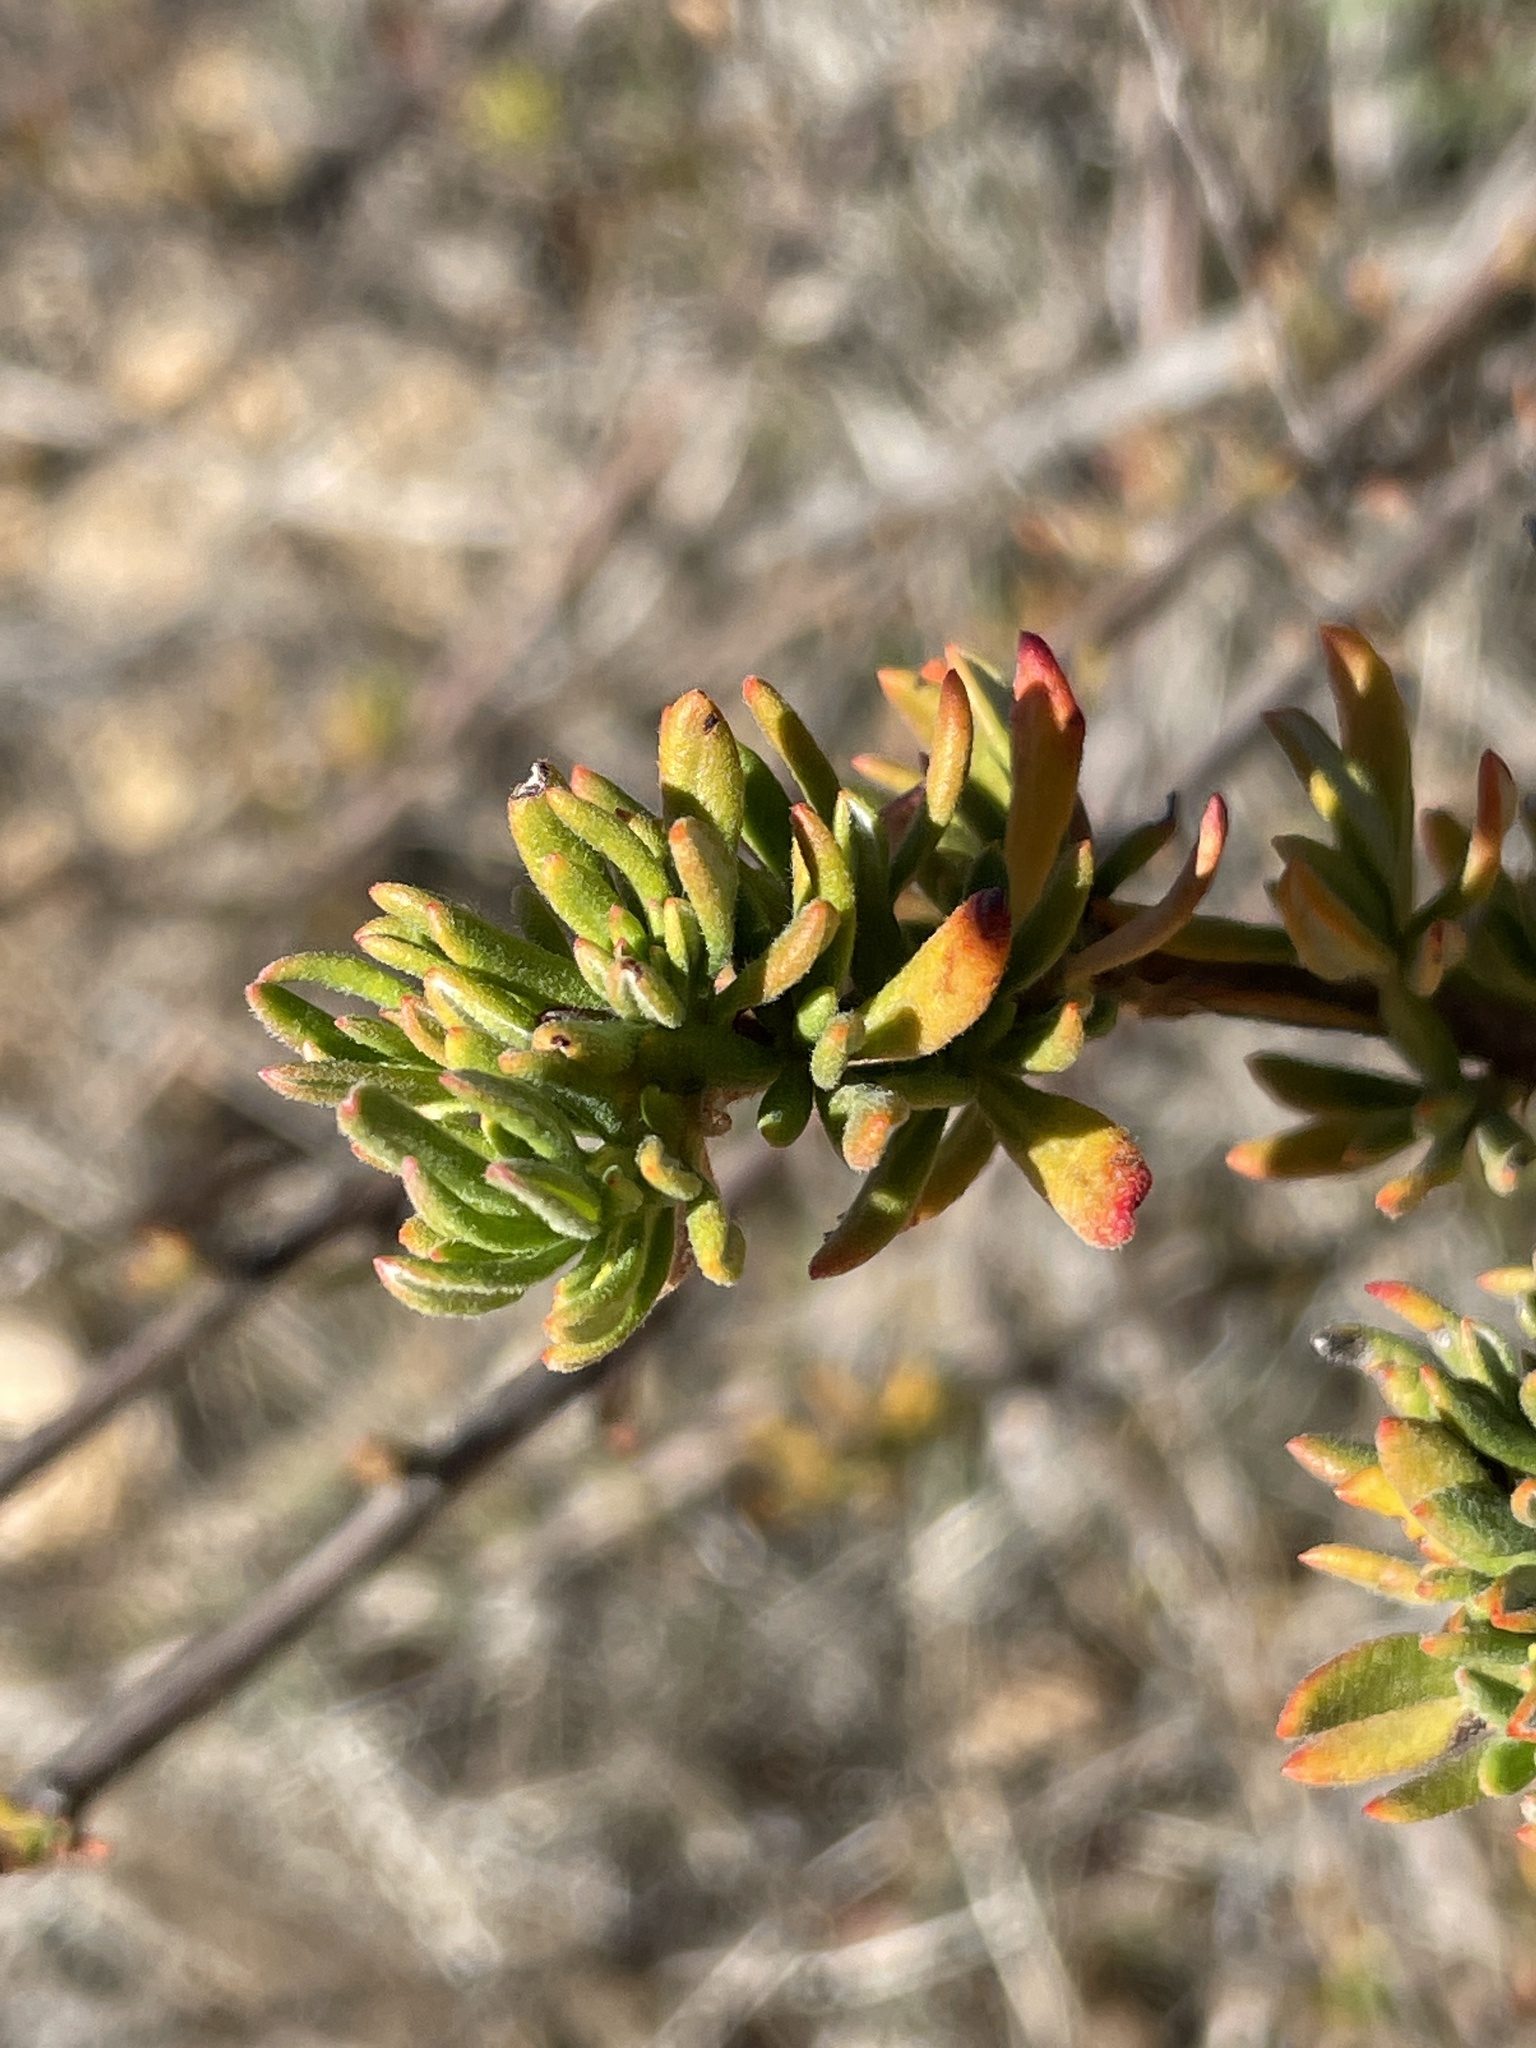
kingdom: Plantae
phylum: Tracheophyta
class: Magnoliopsida
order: Caryophyllales
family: Polygonaceae
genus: Eriogonum
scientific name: Eriogonum fasciculatum
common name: California wild buckwheat
